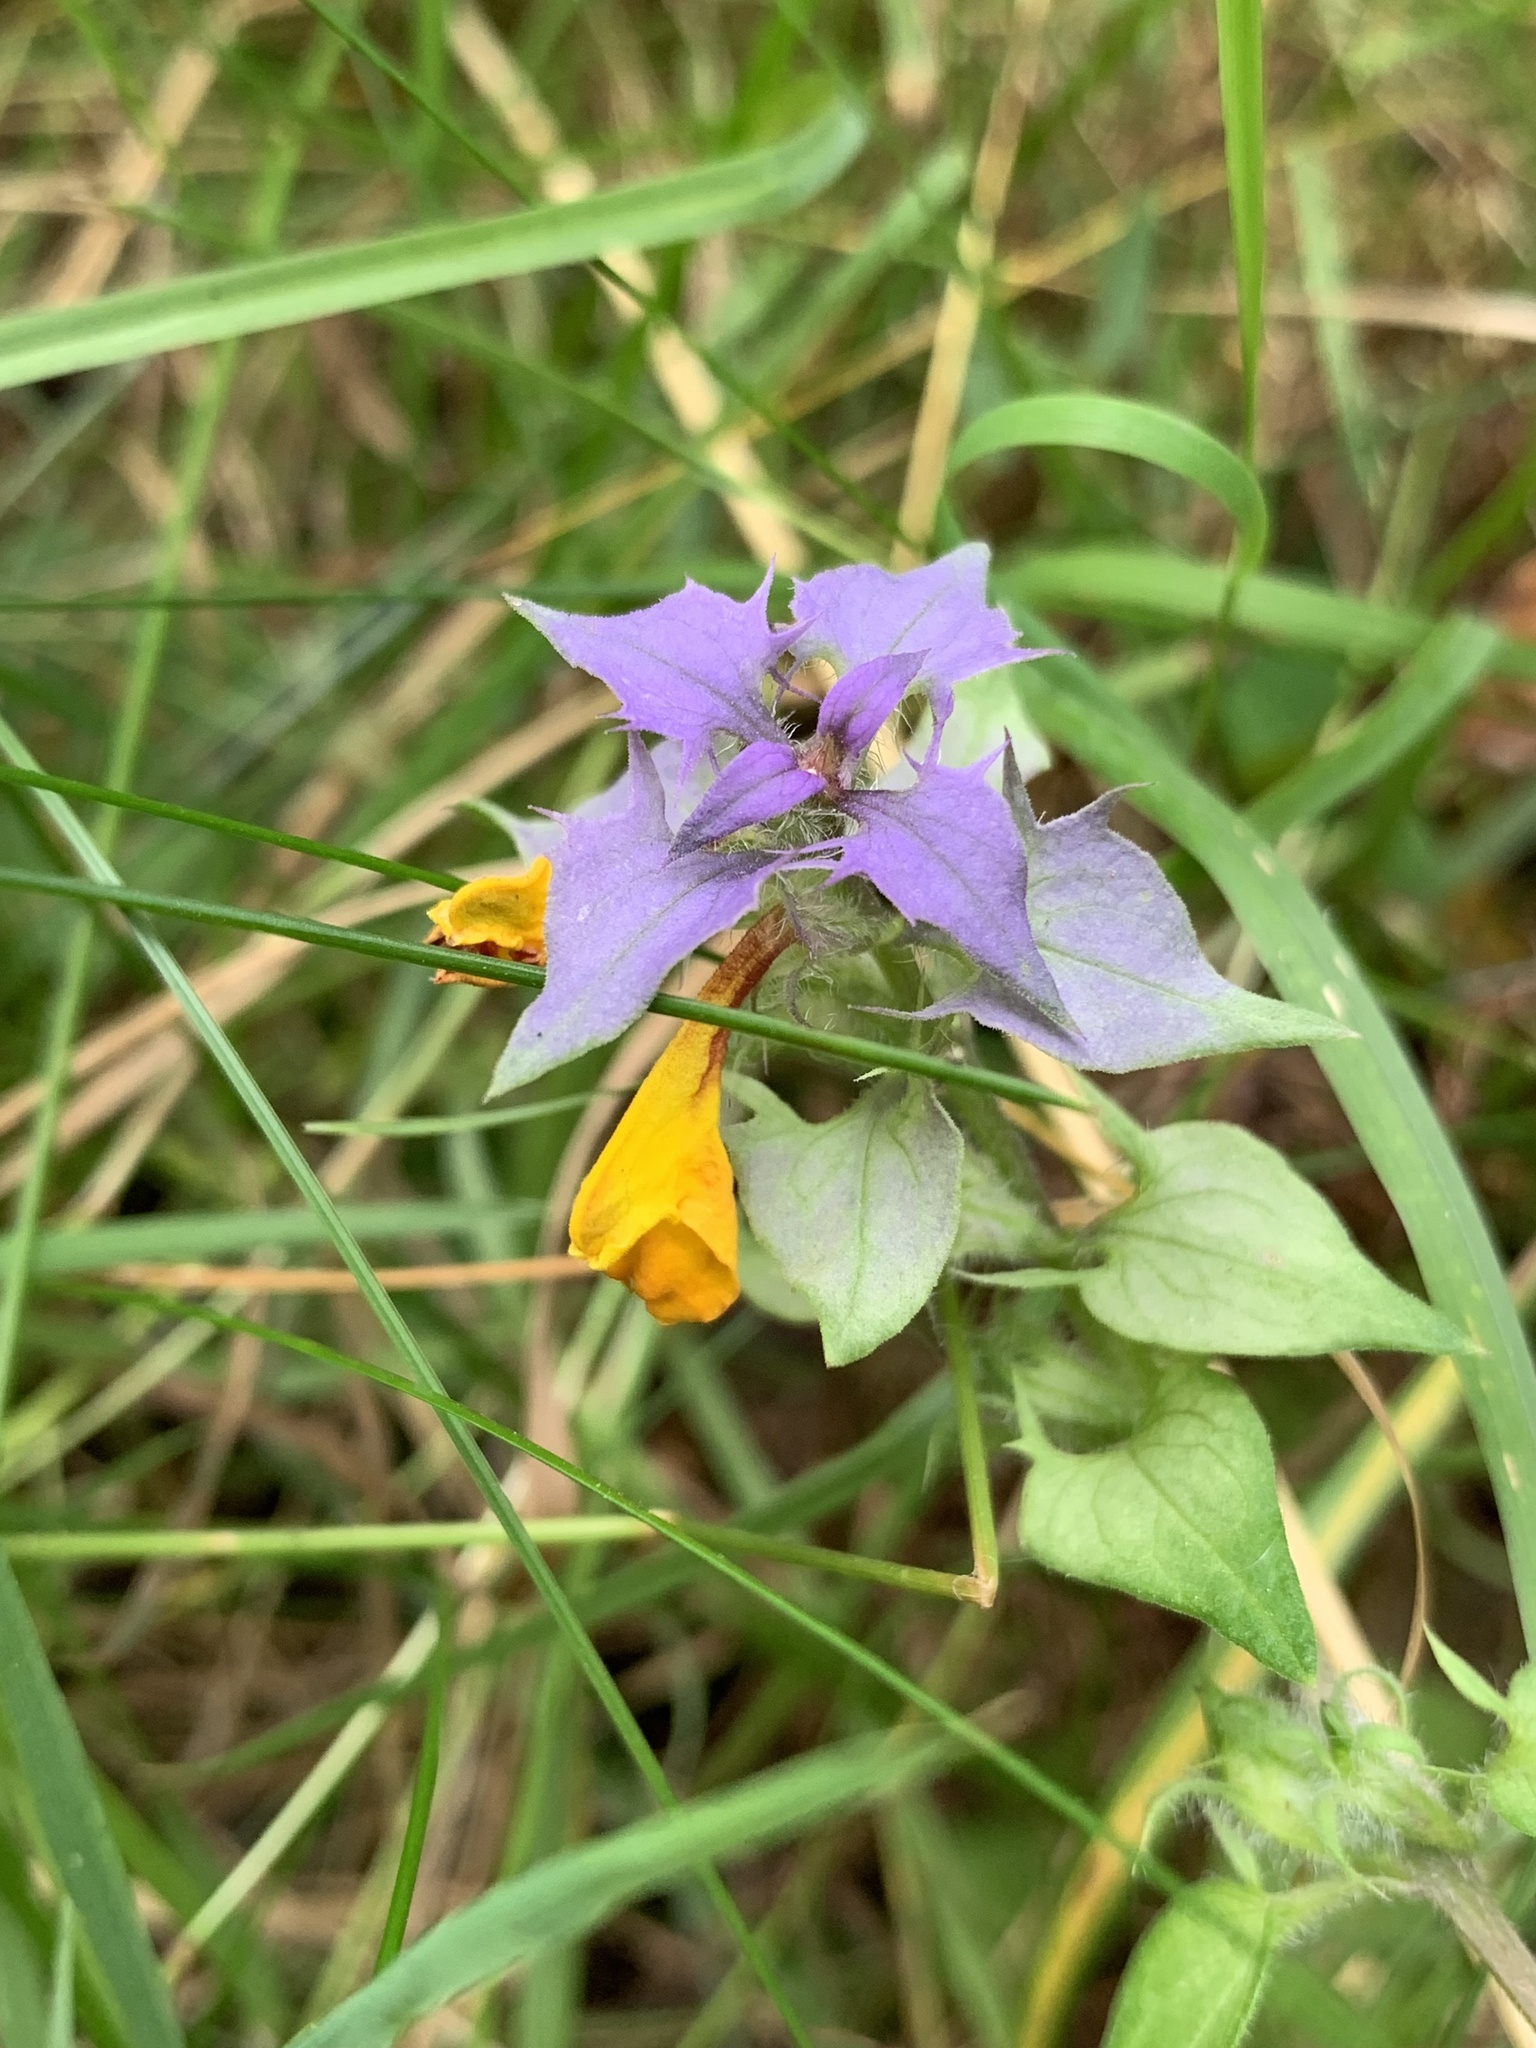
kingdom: Plantae
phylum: Tracheophyta
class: Magnoliopsida
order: Lamiales
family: Orobanchaceae
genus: Melampyrum
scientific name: Melampyrum nemorosum
